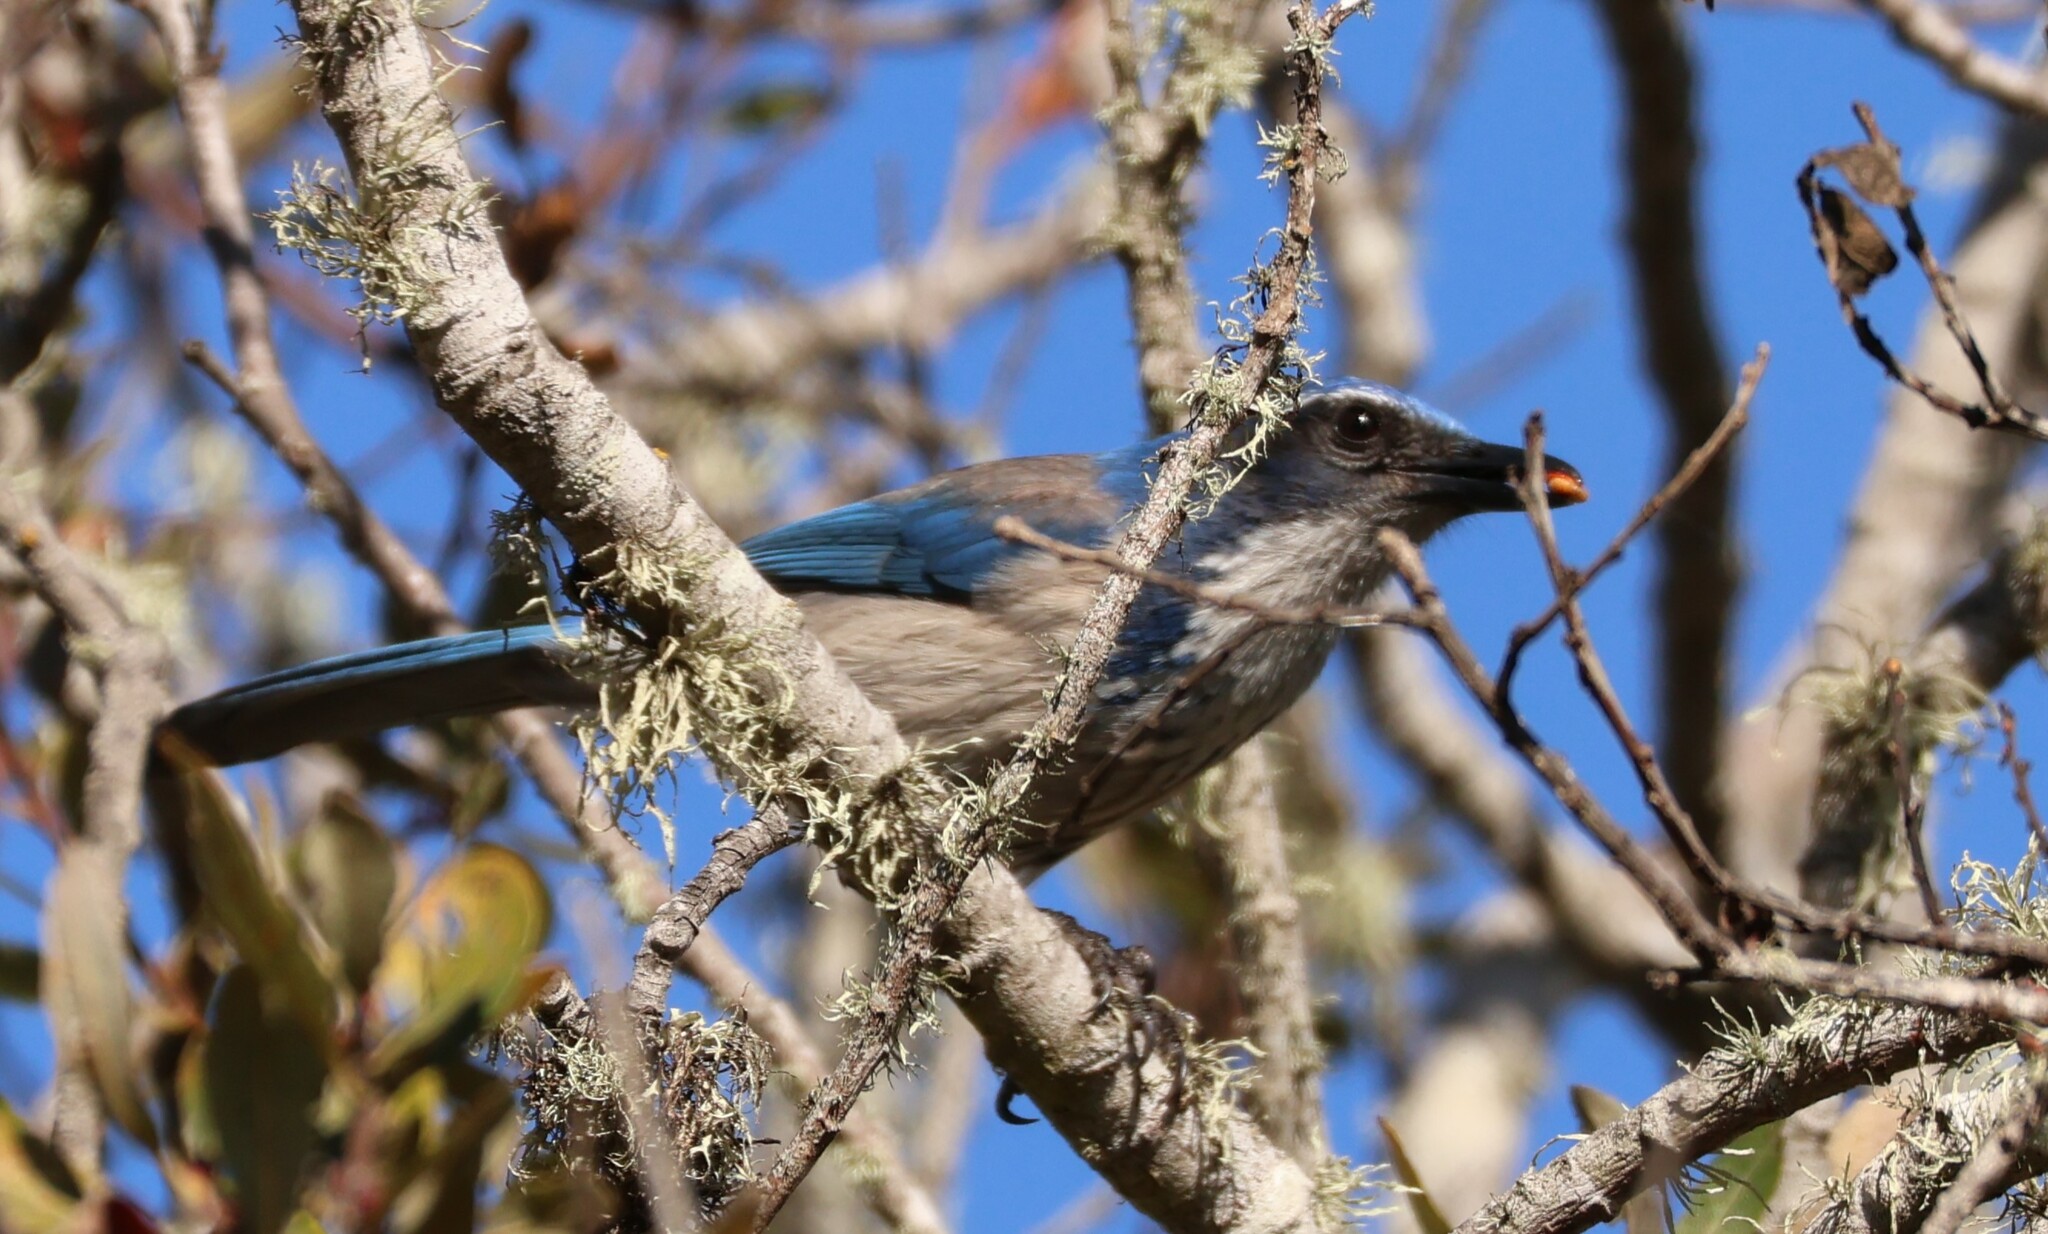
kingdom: Animalia
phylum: Chordata
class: Aves
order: Passeriformes
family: Corvidae
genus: Aphelocoma
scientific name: Aphelocoma californica
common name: California scrub-jay
